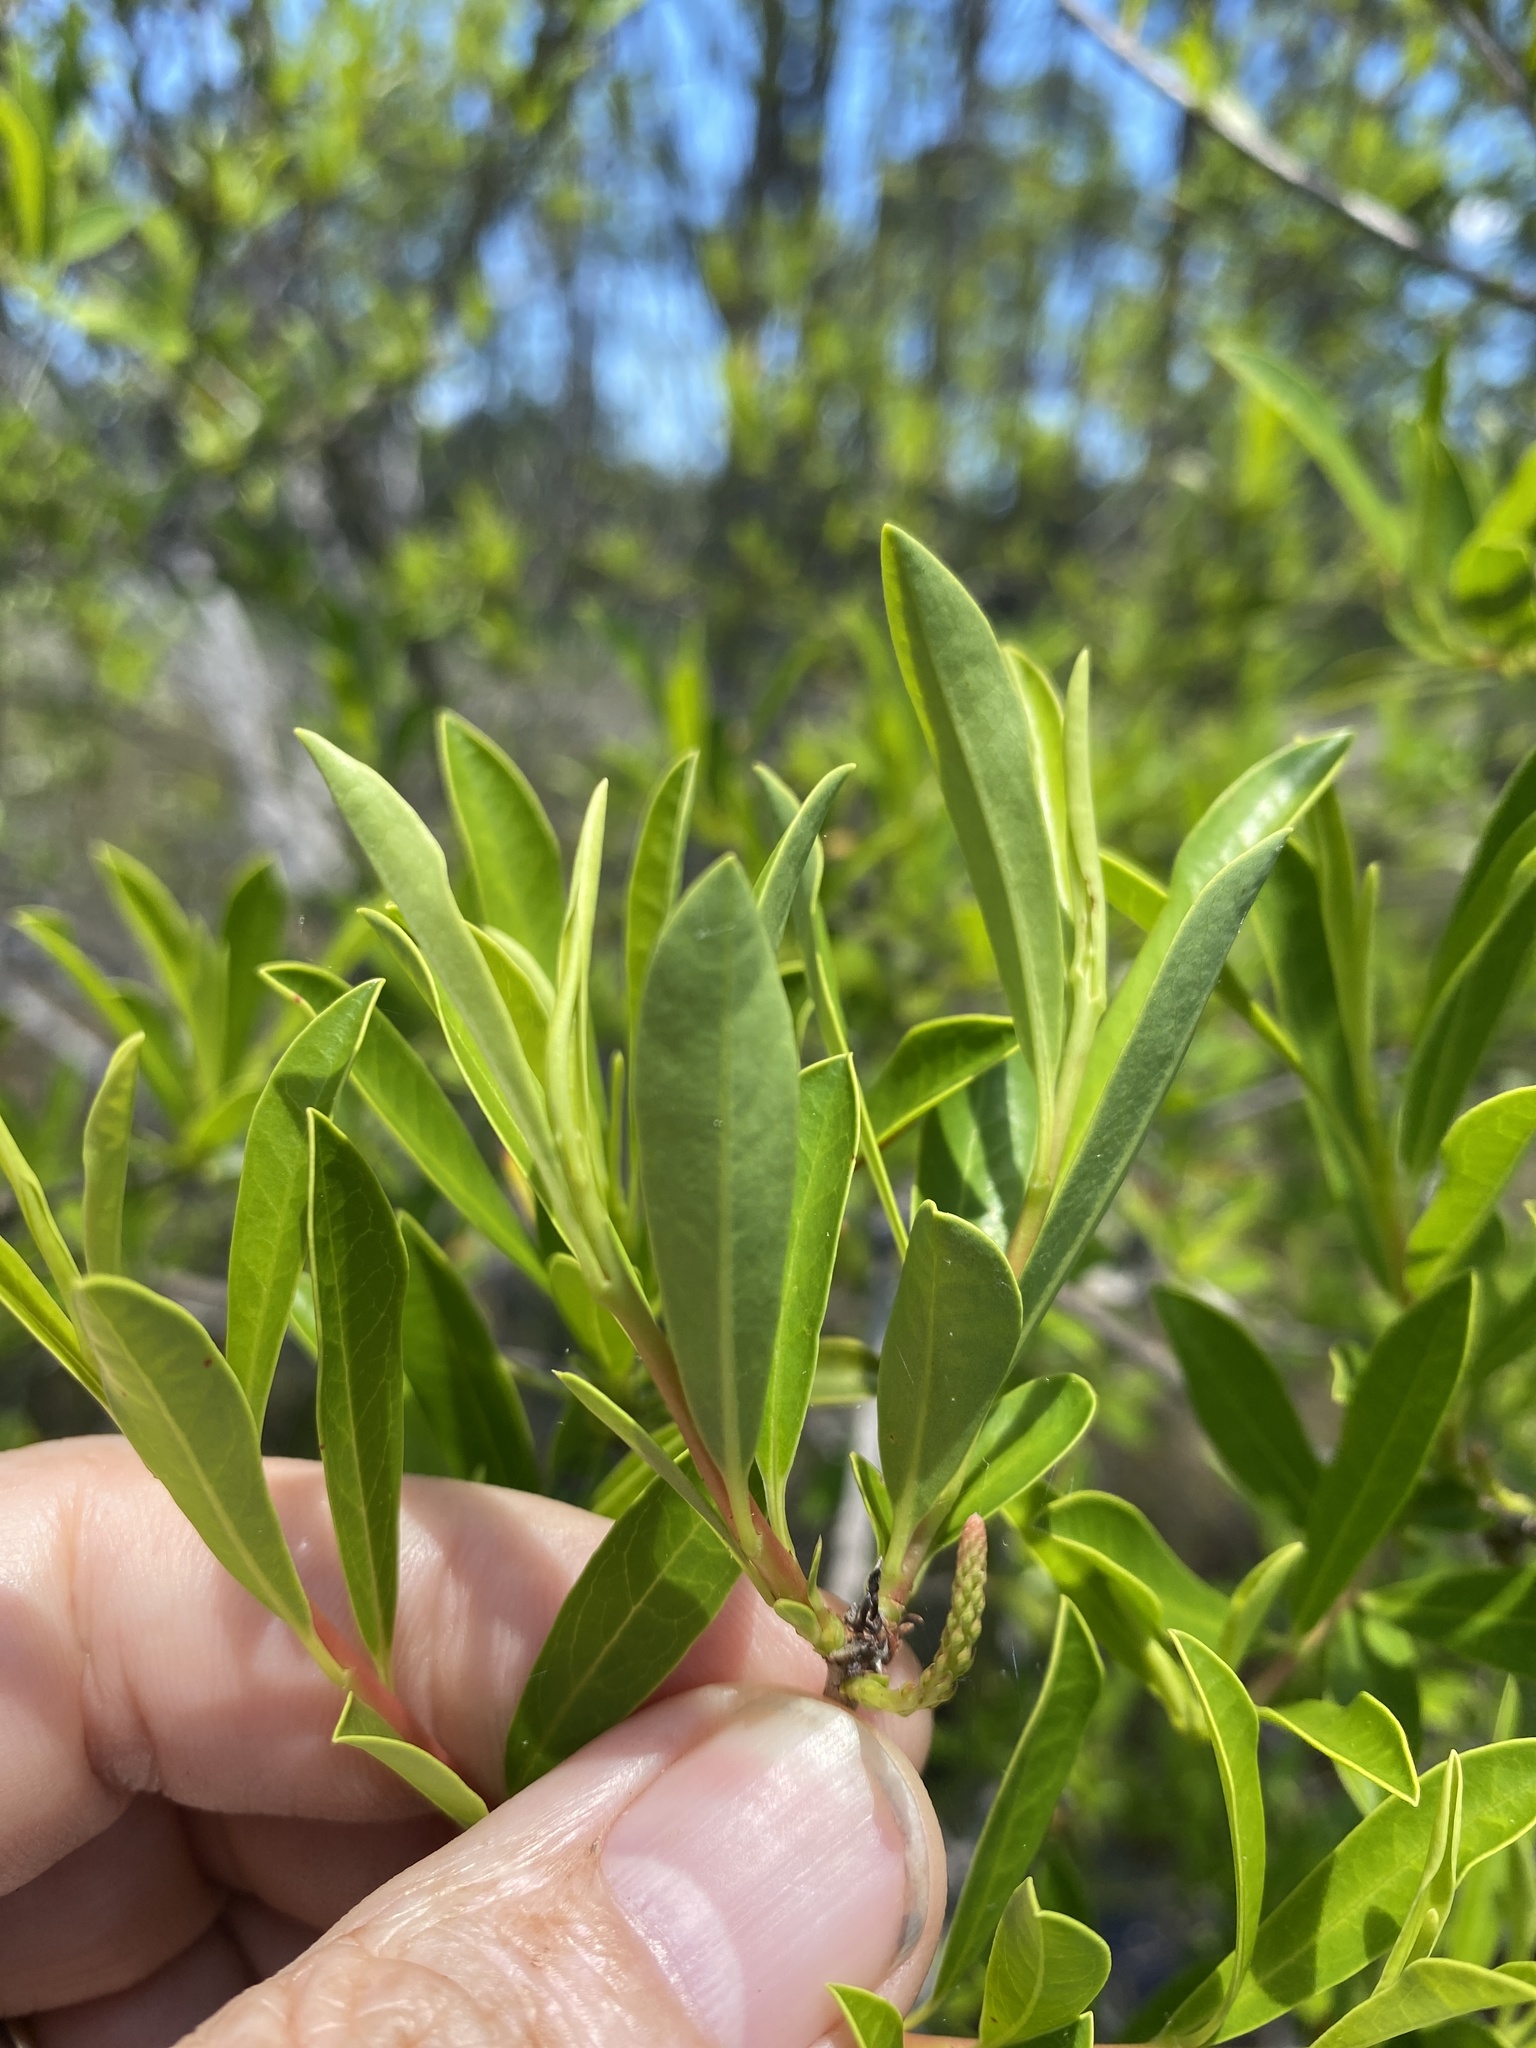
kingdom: Plantae
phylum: Tracheophyta
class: Magnoliopsida
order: Ericales
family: Cyrillaceae
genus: Cyrilla
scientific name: Cyrilla racemiflora
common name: Black titi
